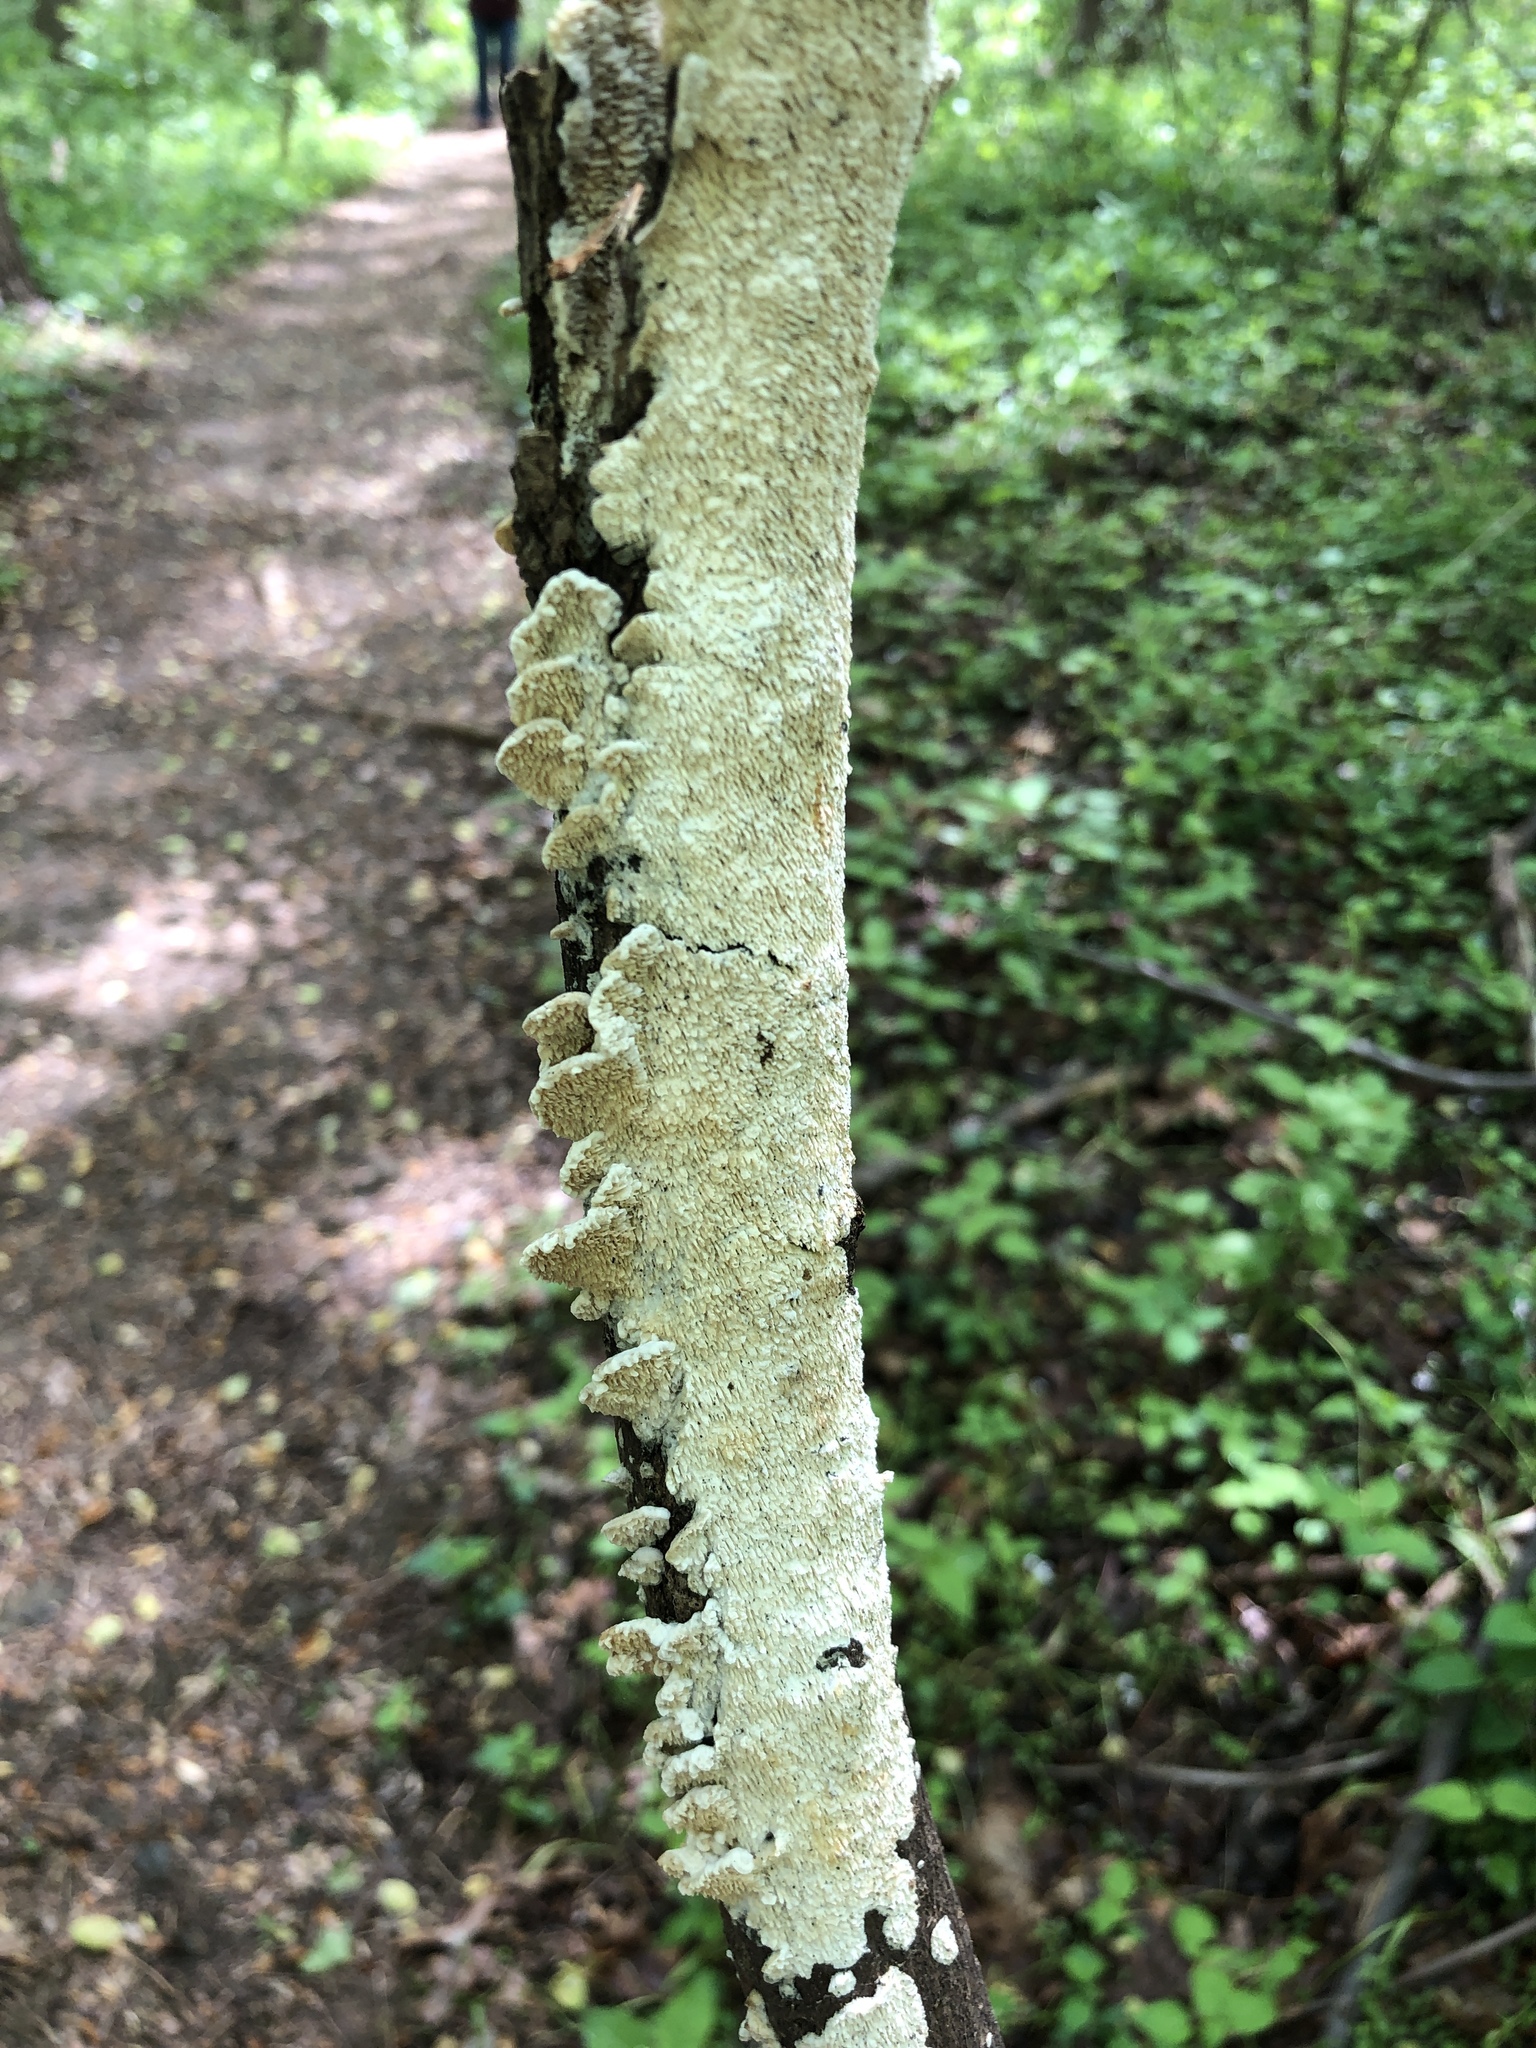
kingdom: Fungi
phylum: Basidiomycota
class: Agaricomycetes
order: Polyporales
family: Irpicaceae
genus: Irpex
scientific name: Irpex lacteus
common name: Milk-white toothed polypore
